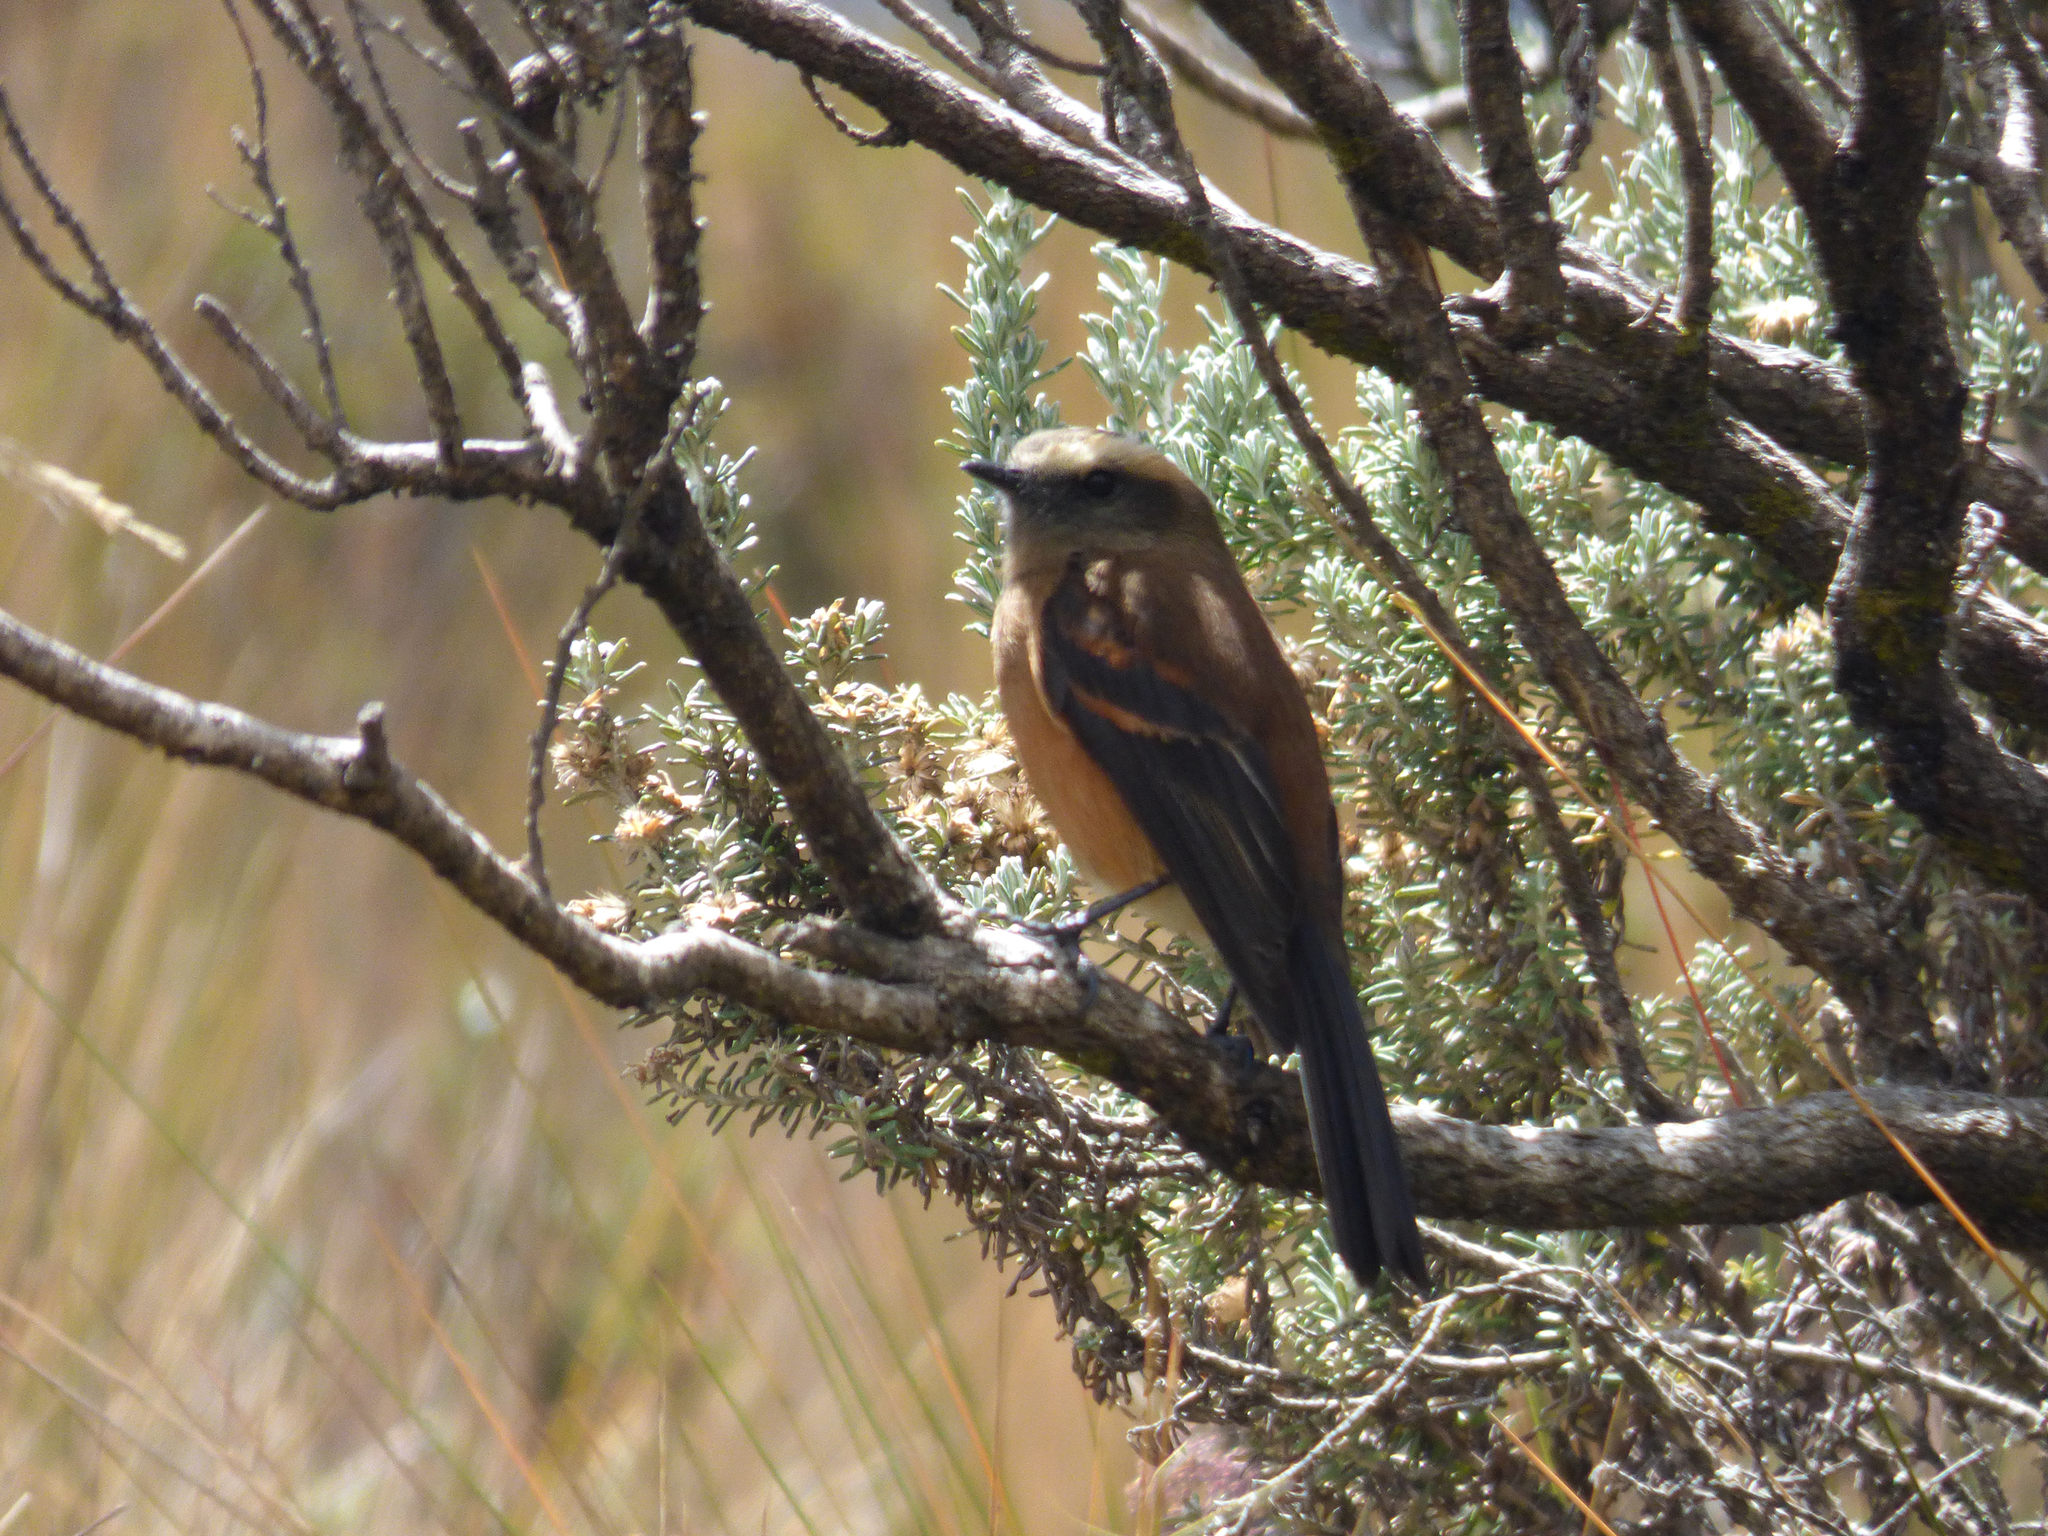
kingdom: Animalia
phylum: Chordata
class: Aves
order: Passeriformes
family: Tyrannidae
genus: Ochthoeca
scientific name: Ochthoeca fumicolor
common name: Brown-backed chat-tyrant
